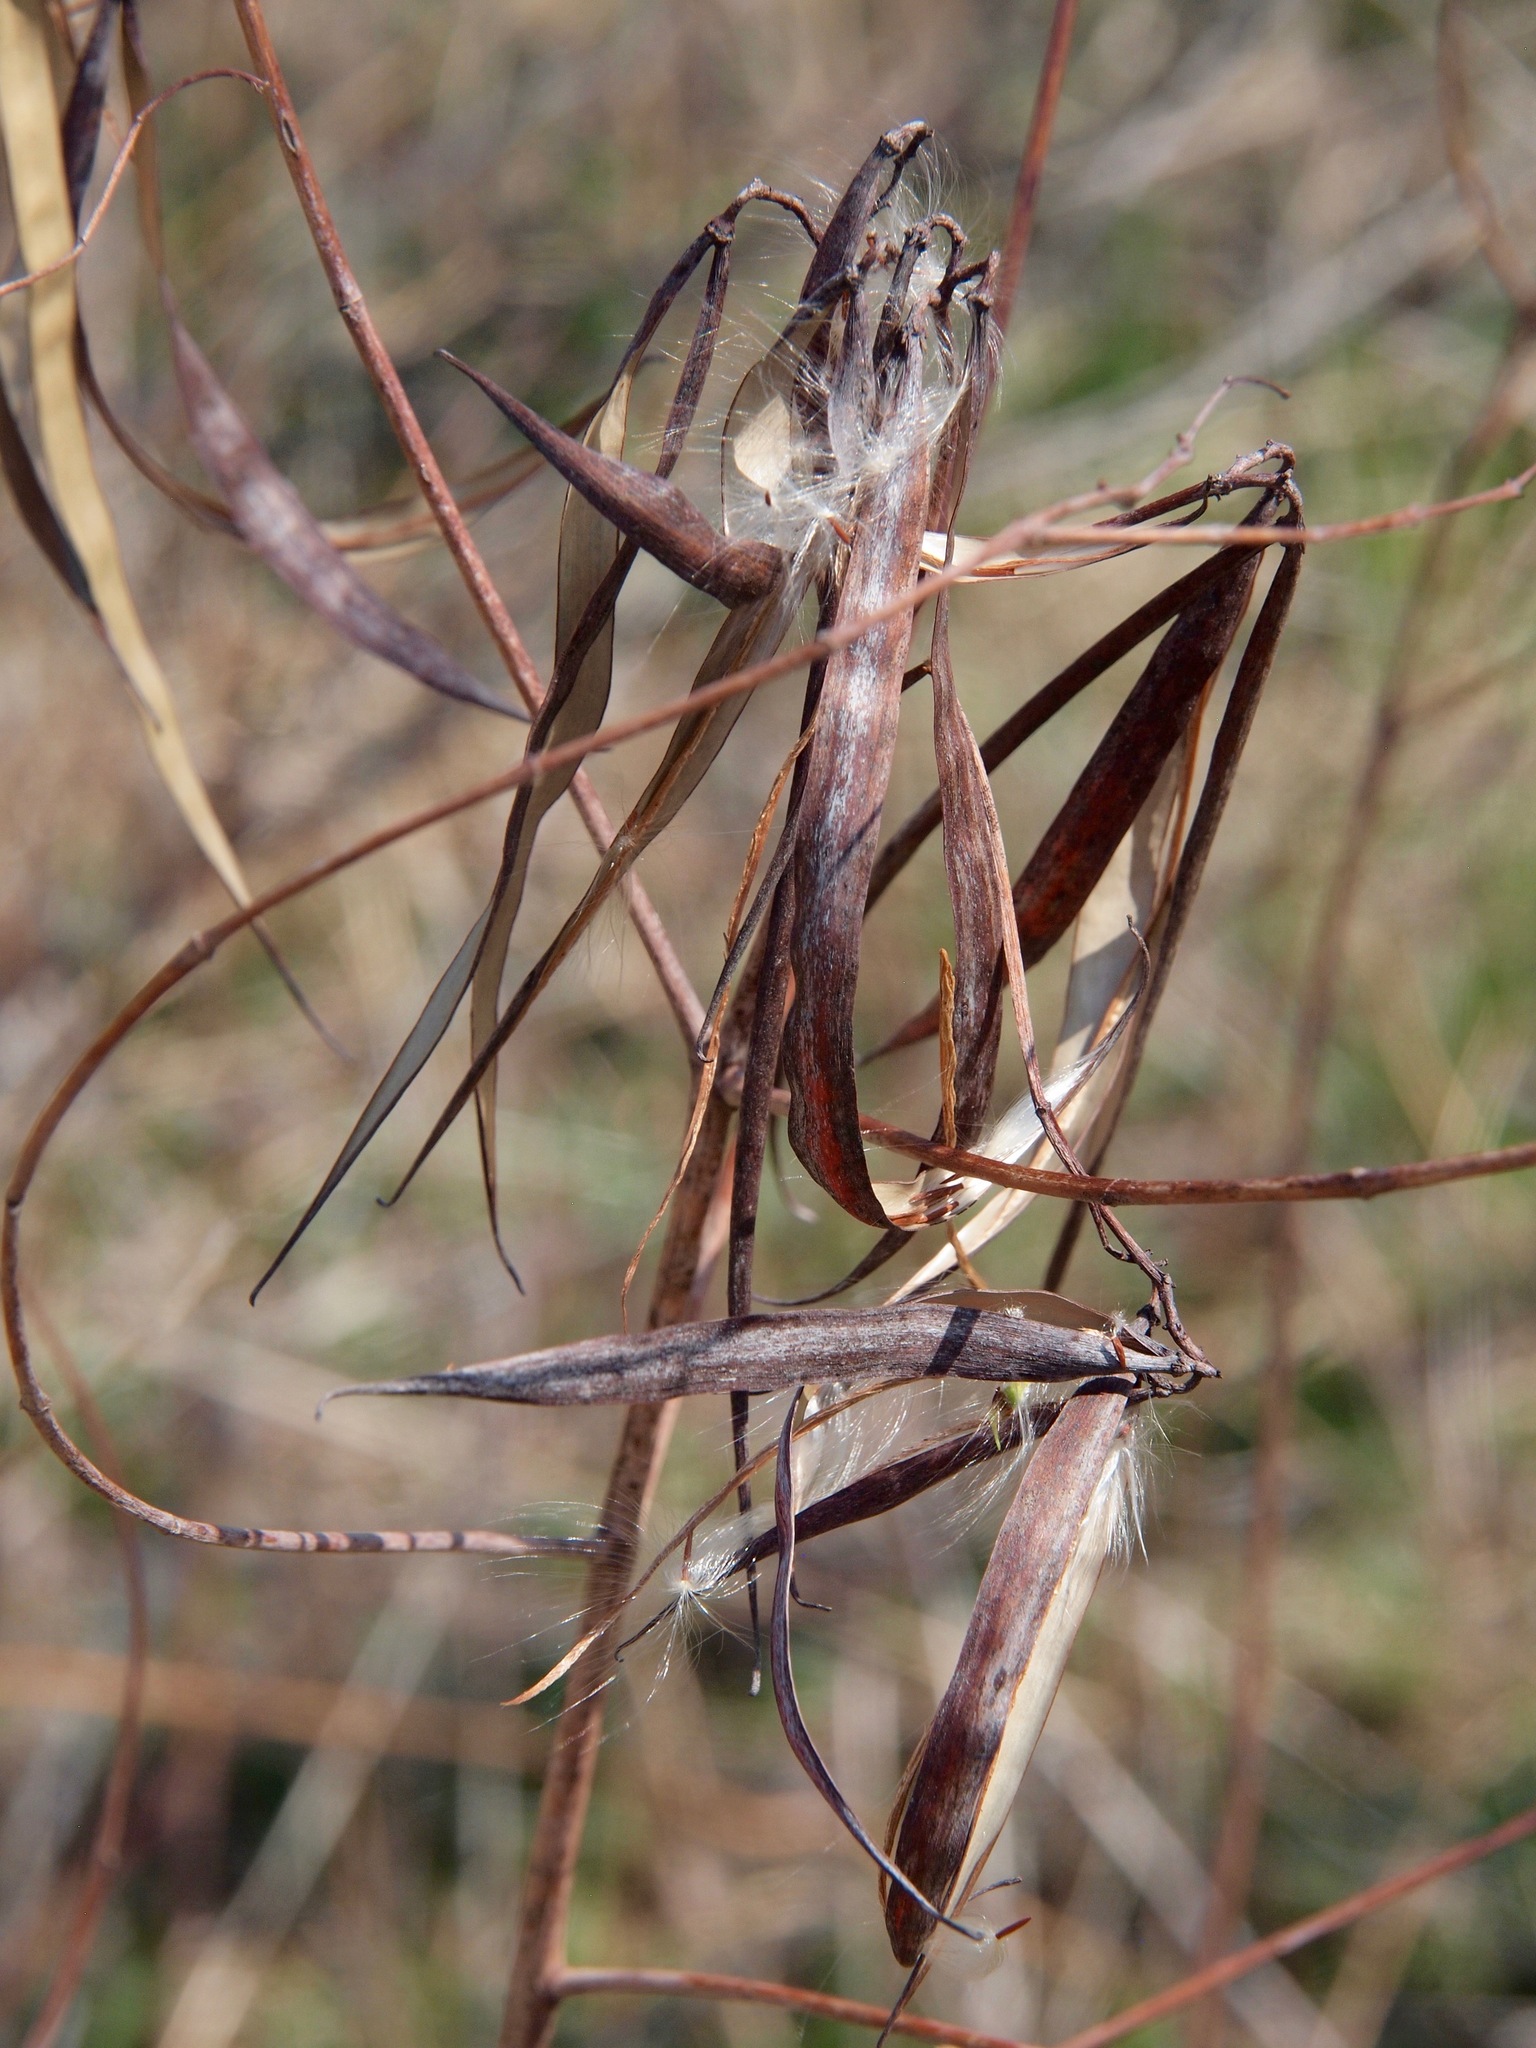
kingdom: Plantae
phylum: Tracheophyta
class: Magnoliopsida
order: Gentianales
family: Apocynaceae
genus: Apocynum
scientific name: Apocynum cannabinum
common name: Hemp dogbane
